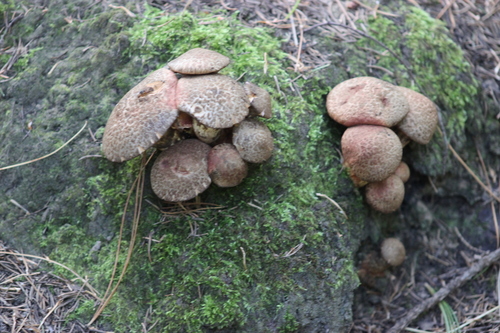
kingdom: Fungi
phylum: Basidiomycota
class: Agaricomycetes
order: Boletales
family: Suillaceae
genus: Suillus
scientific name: Suillus spraguei
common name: Painted suillus
